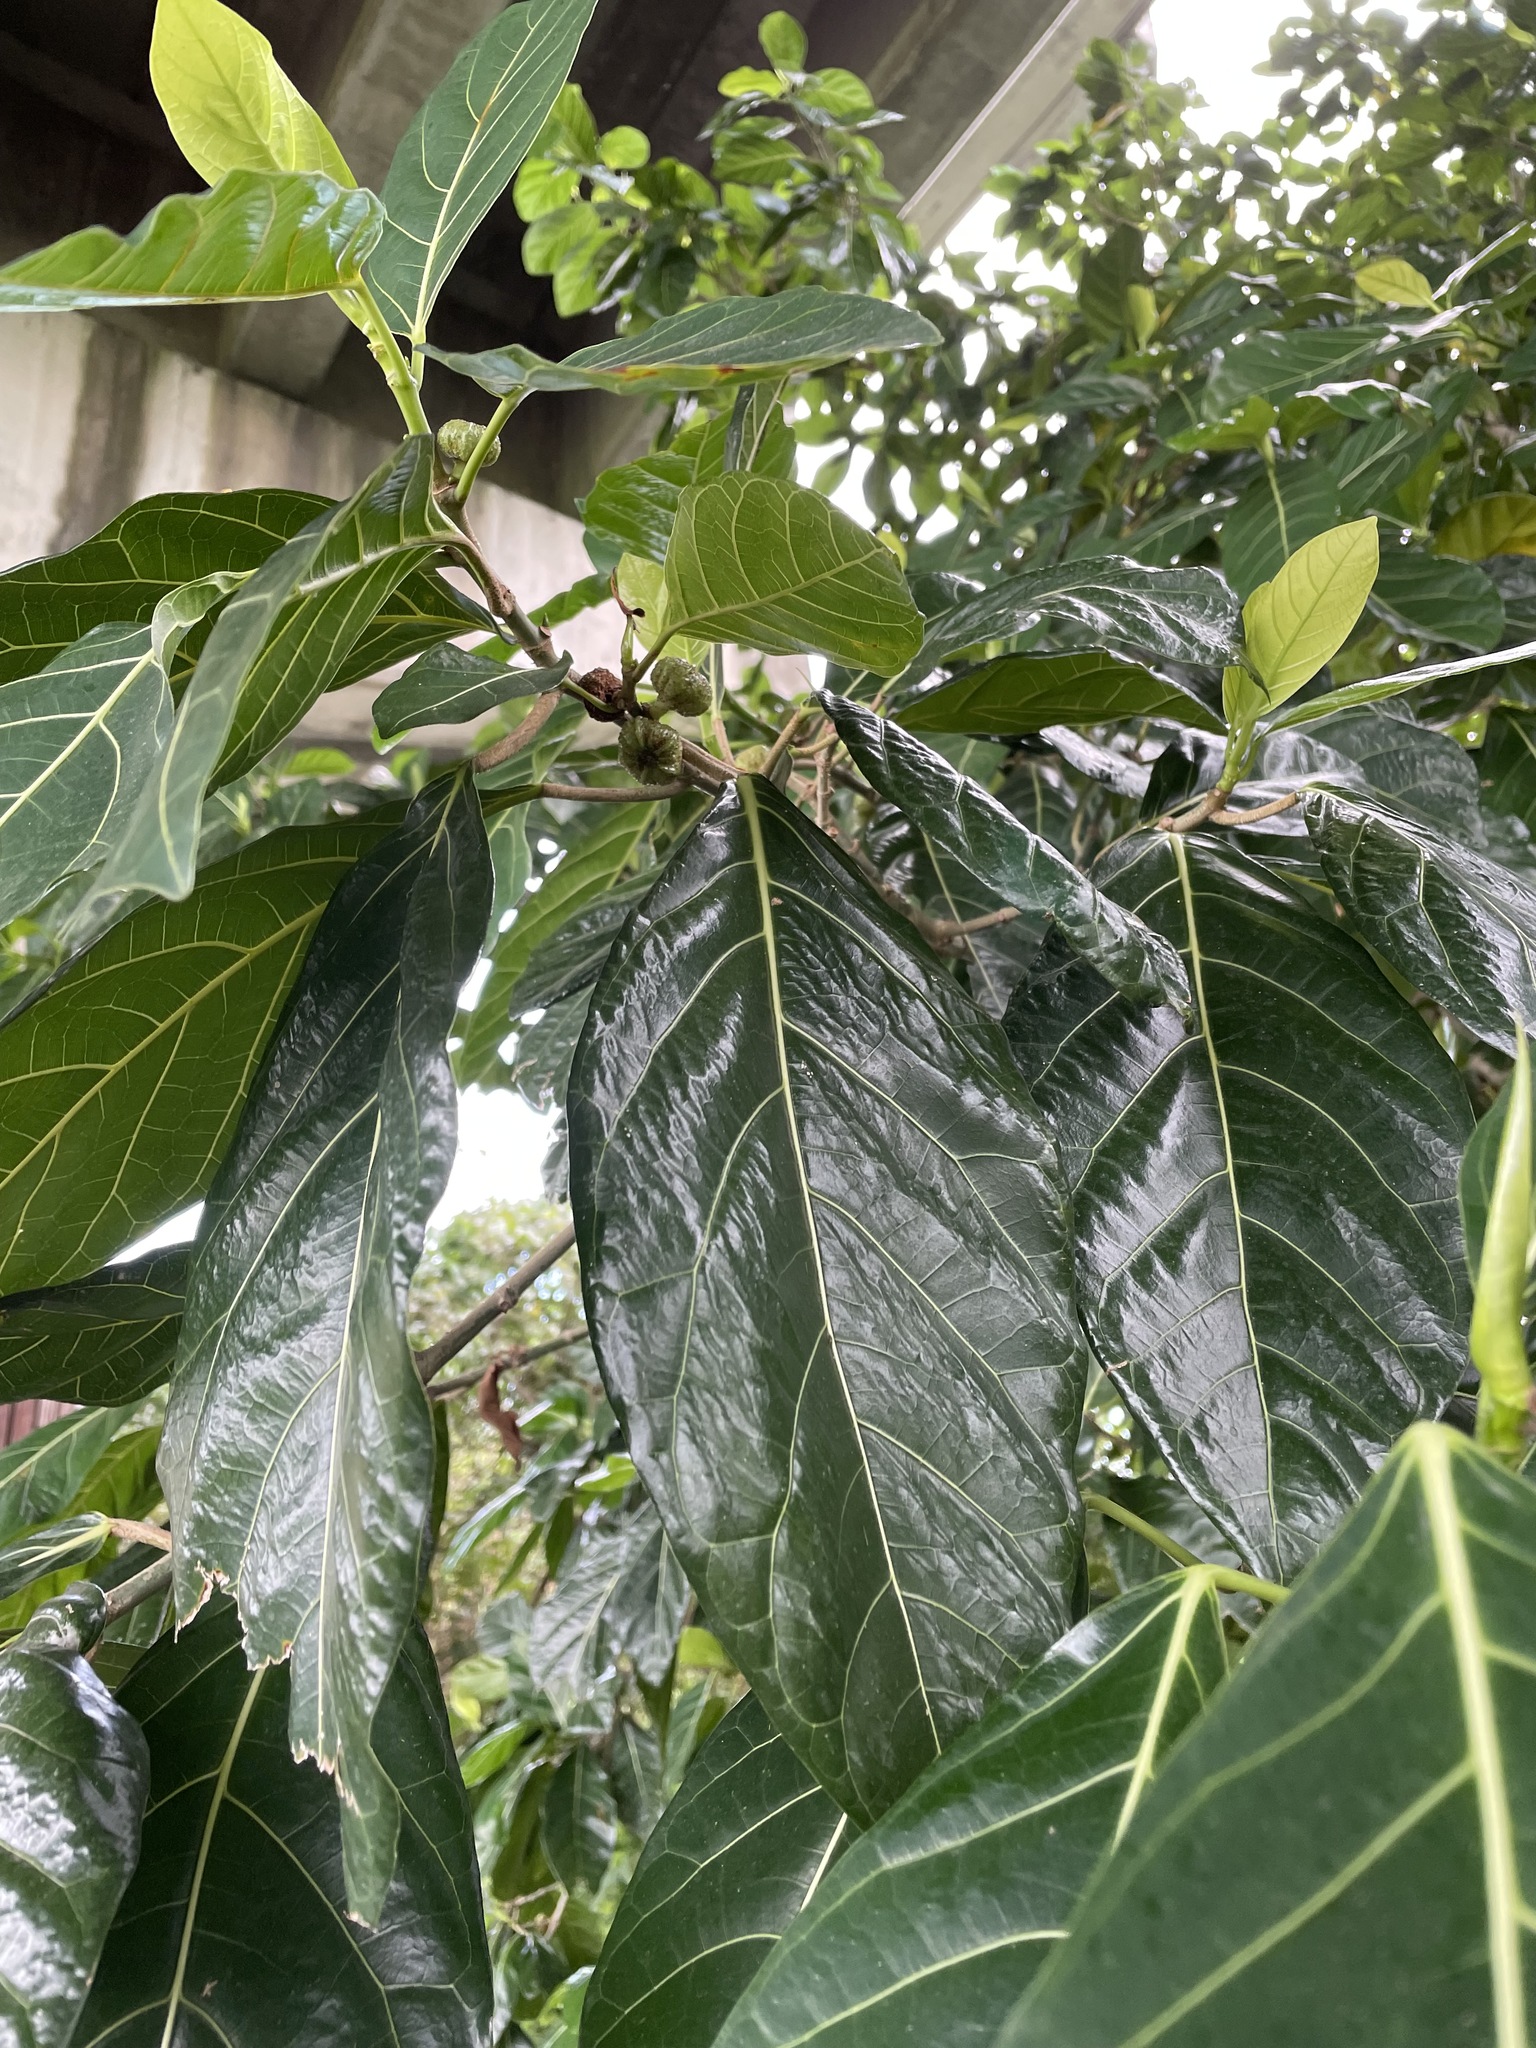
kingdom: Plantae
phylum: Tracheophyta
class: Magnoliopsida
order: Rosales
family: Moraceae
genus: Ficus
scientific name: Ficus septica
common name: Septic fig
